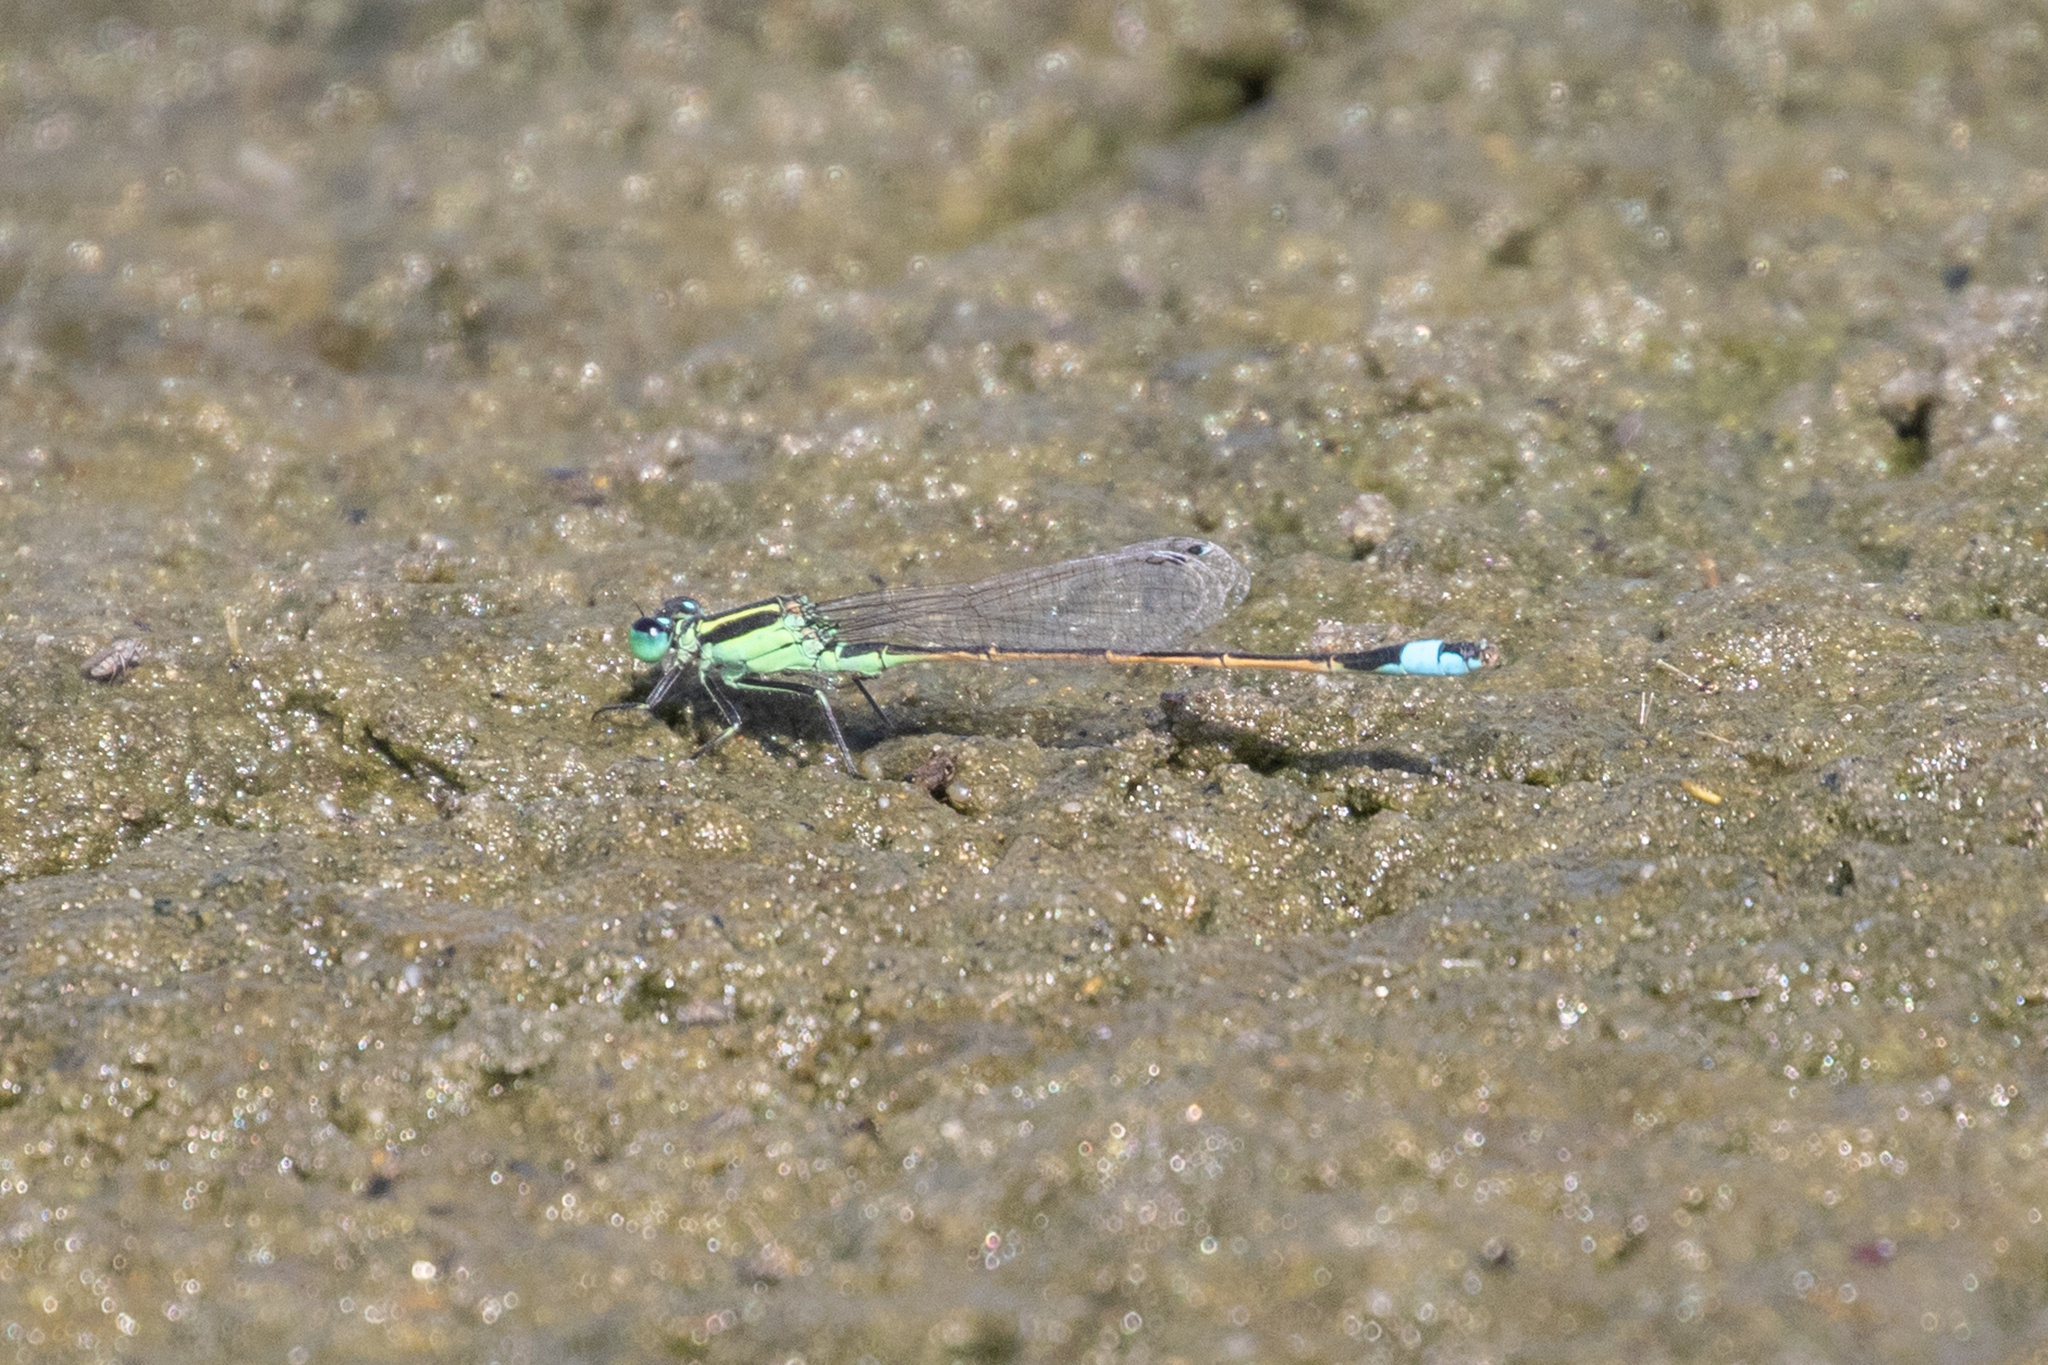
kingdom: Animalia
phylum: Arthropoda
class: Insecta
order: Odonata
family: Coenagrionidae
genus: Ischnura
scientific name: Ischnura ramburii
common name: Rambur's forktail
